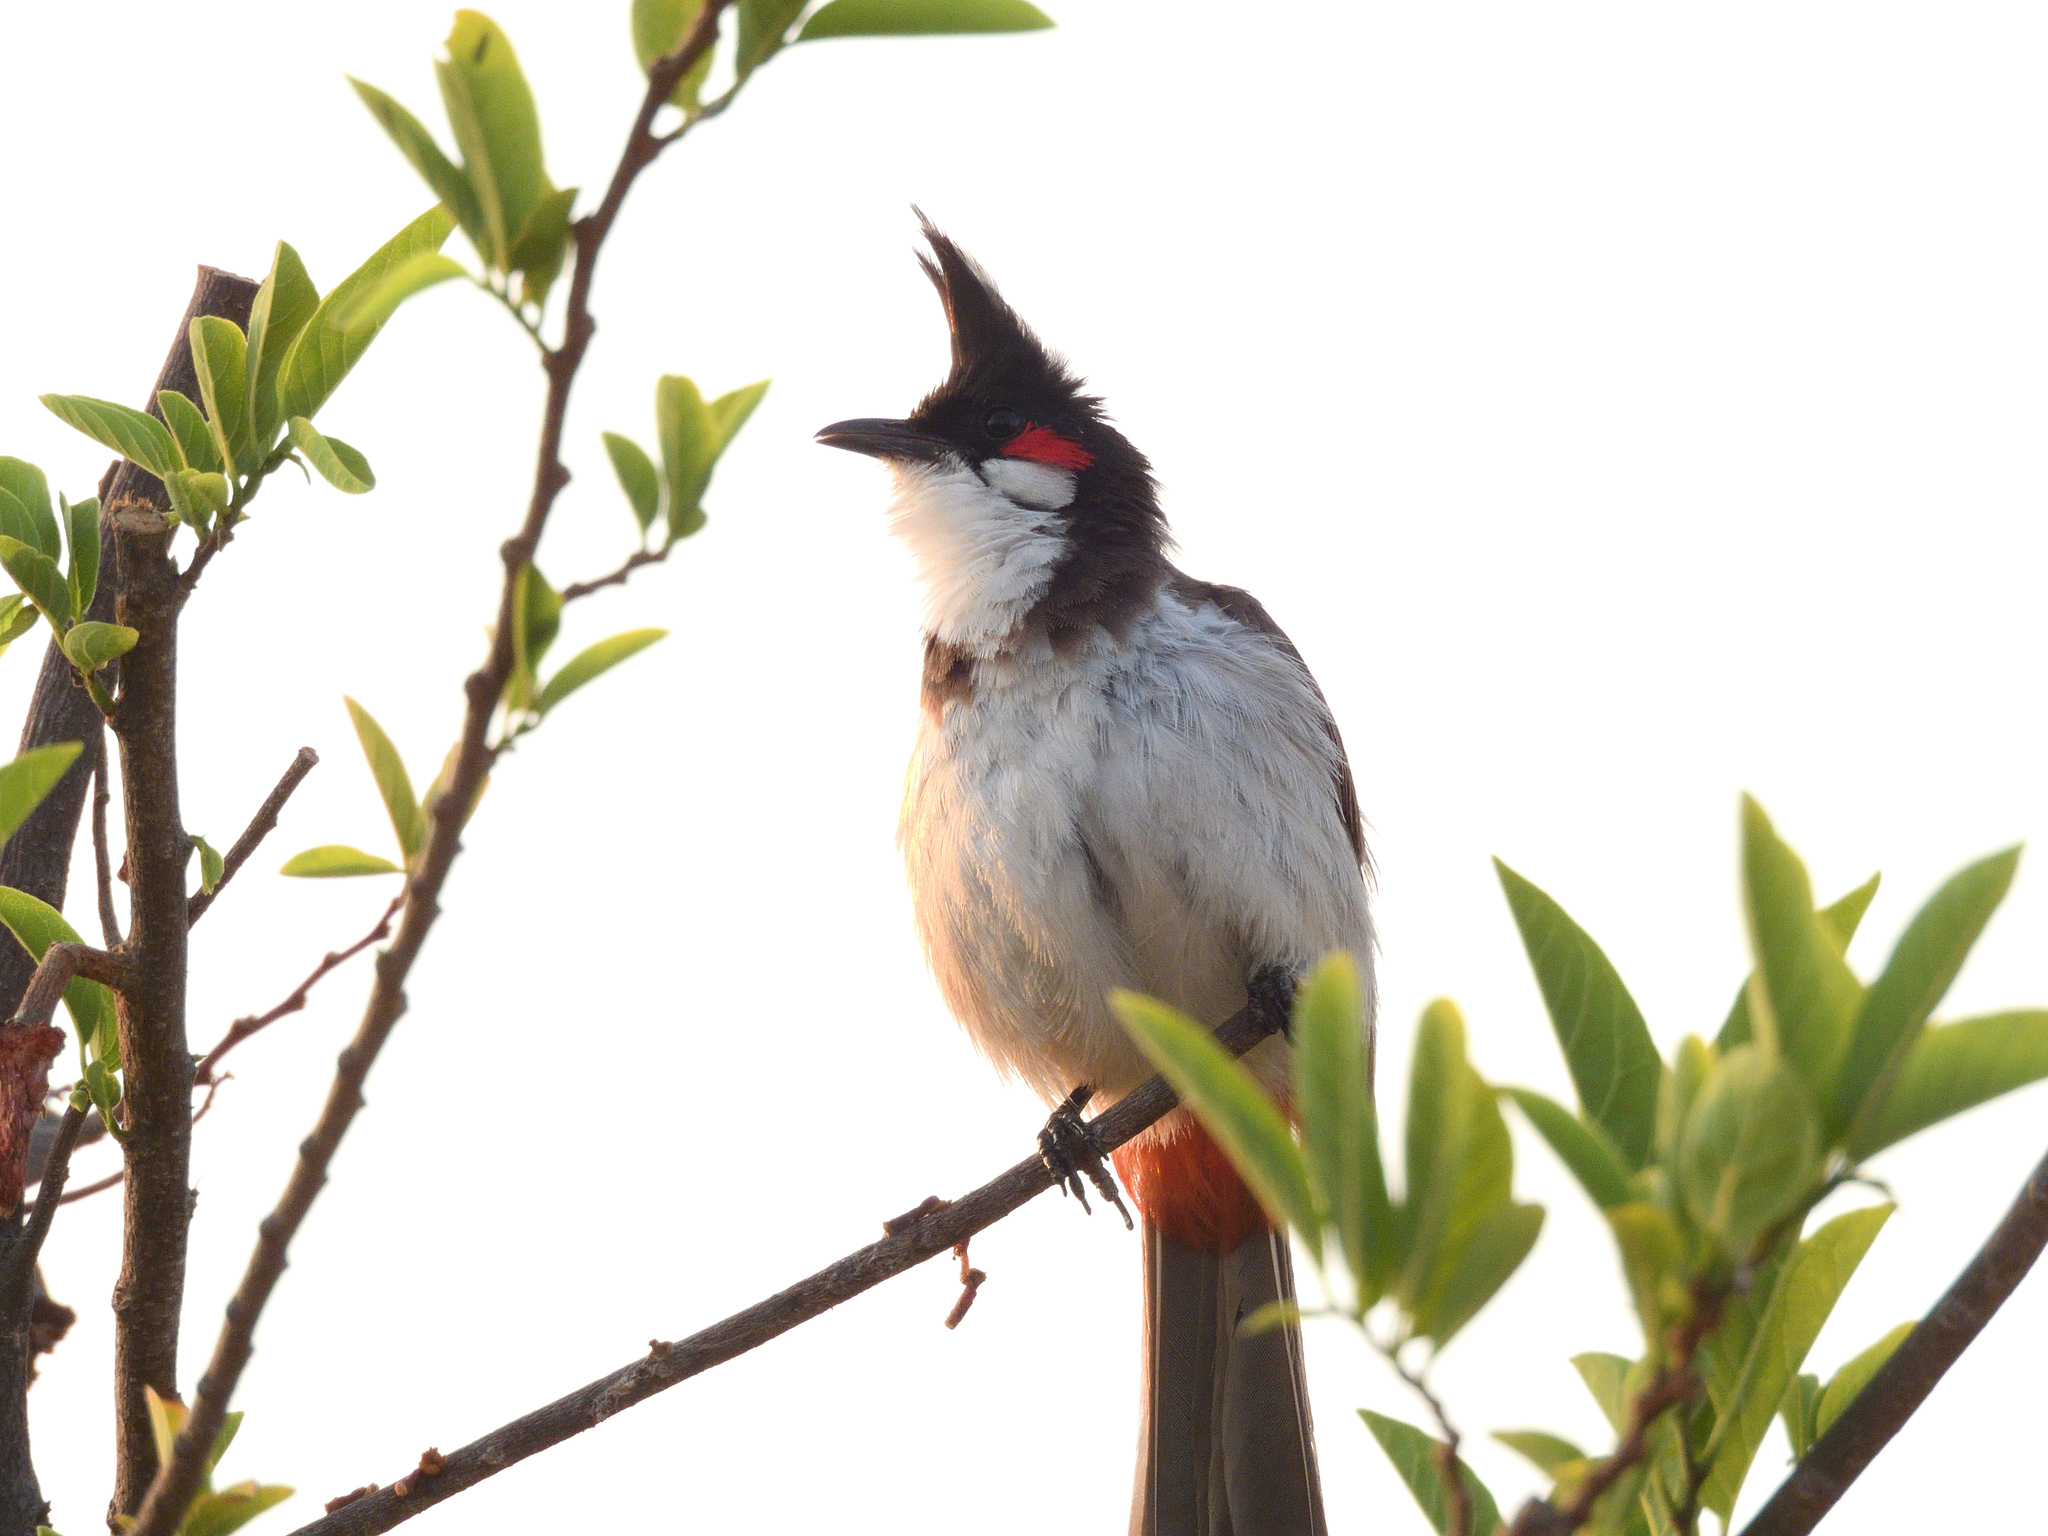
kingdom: Animalia
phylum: Chordata
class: Aves
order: Passeriformes
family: Pycnonotidae
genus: Pycnonotus
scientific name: Pycnonotus jocosus
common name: Red-whiskered bulbul
